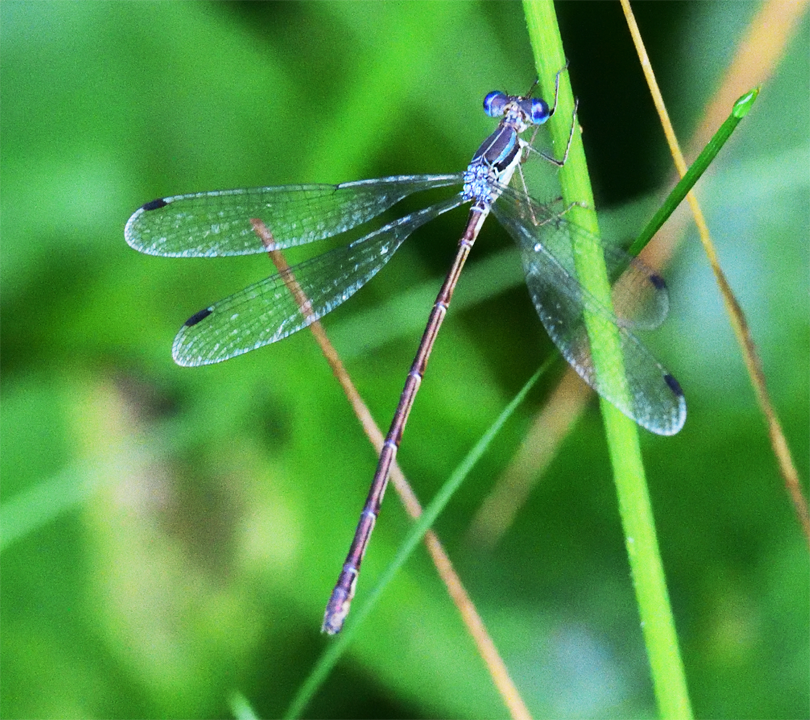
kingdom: Animalia
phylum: Arthropoda
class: Insecta
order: Odonata
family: Lestidae
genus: Lestes
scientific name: Lestes rectangularis
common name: Slender spreadwing
